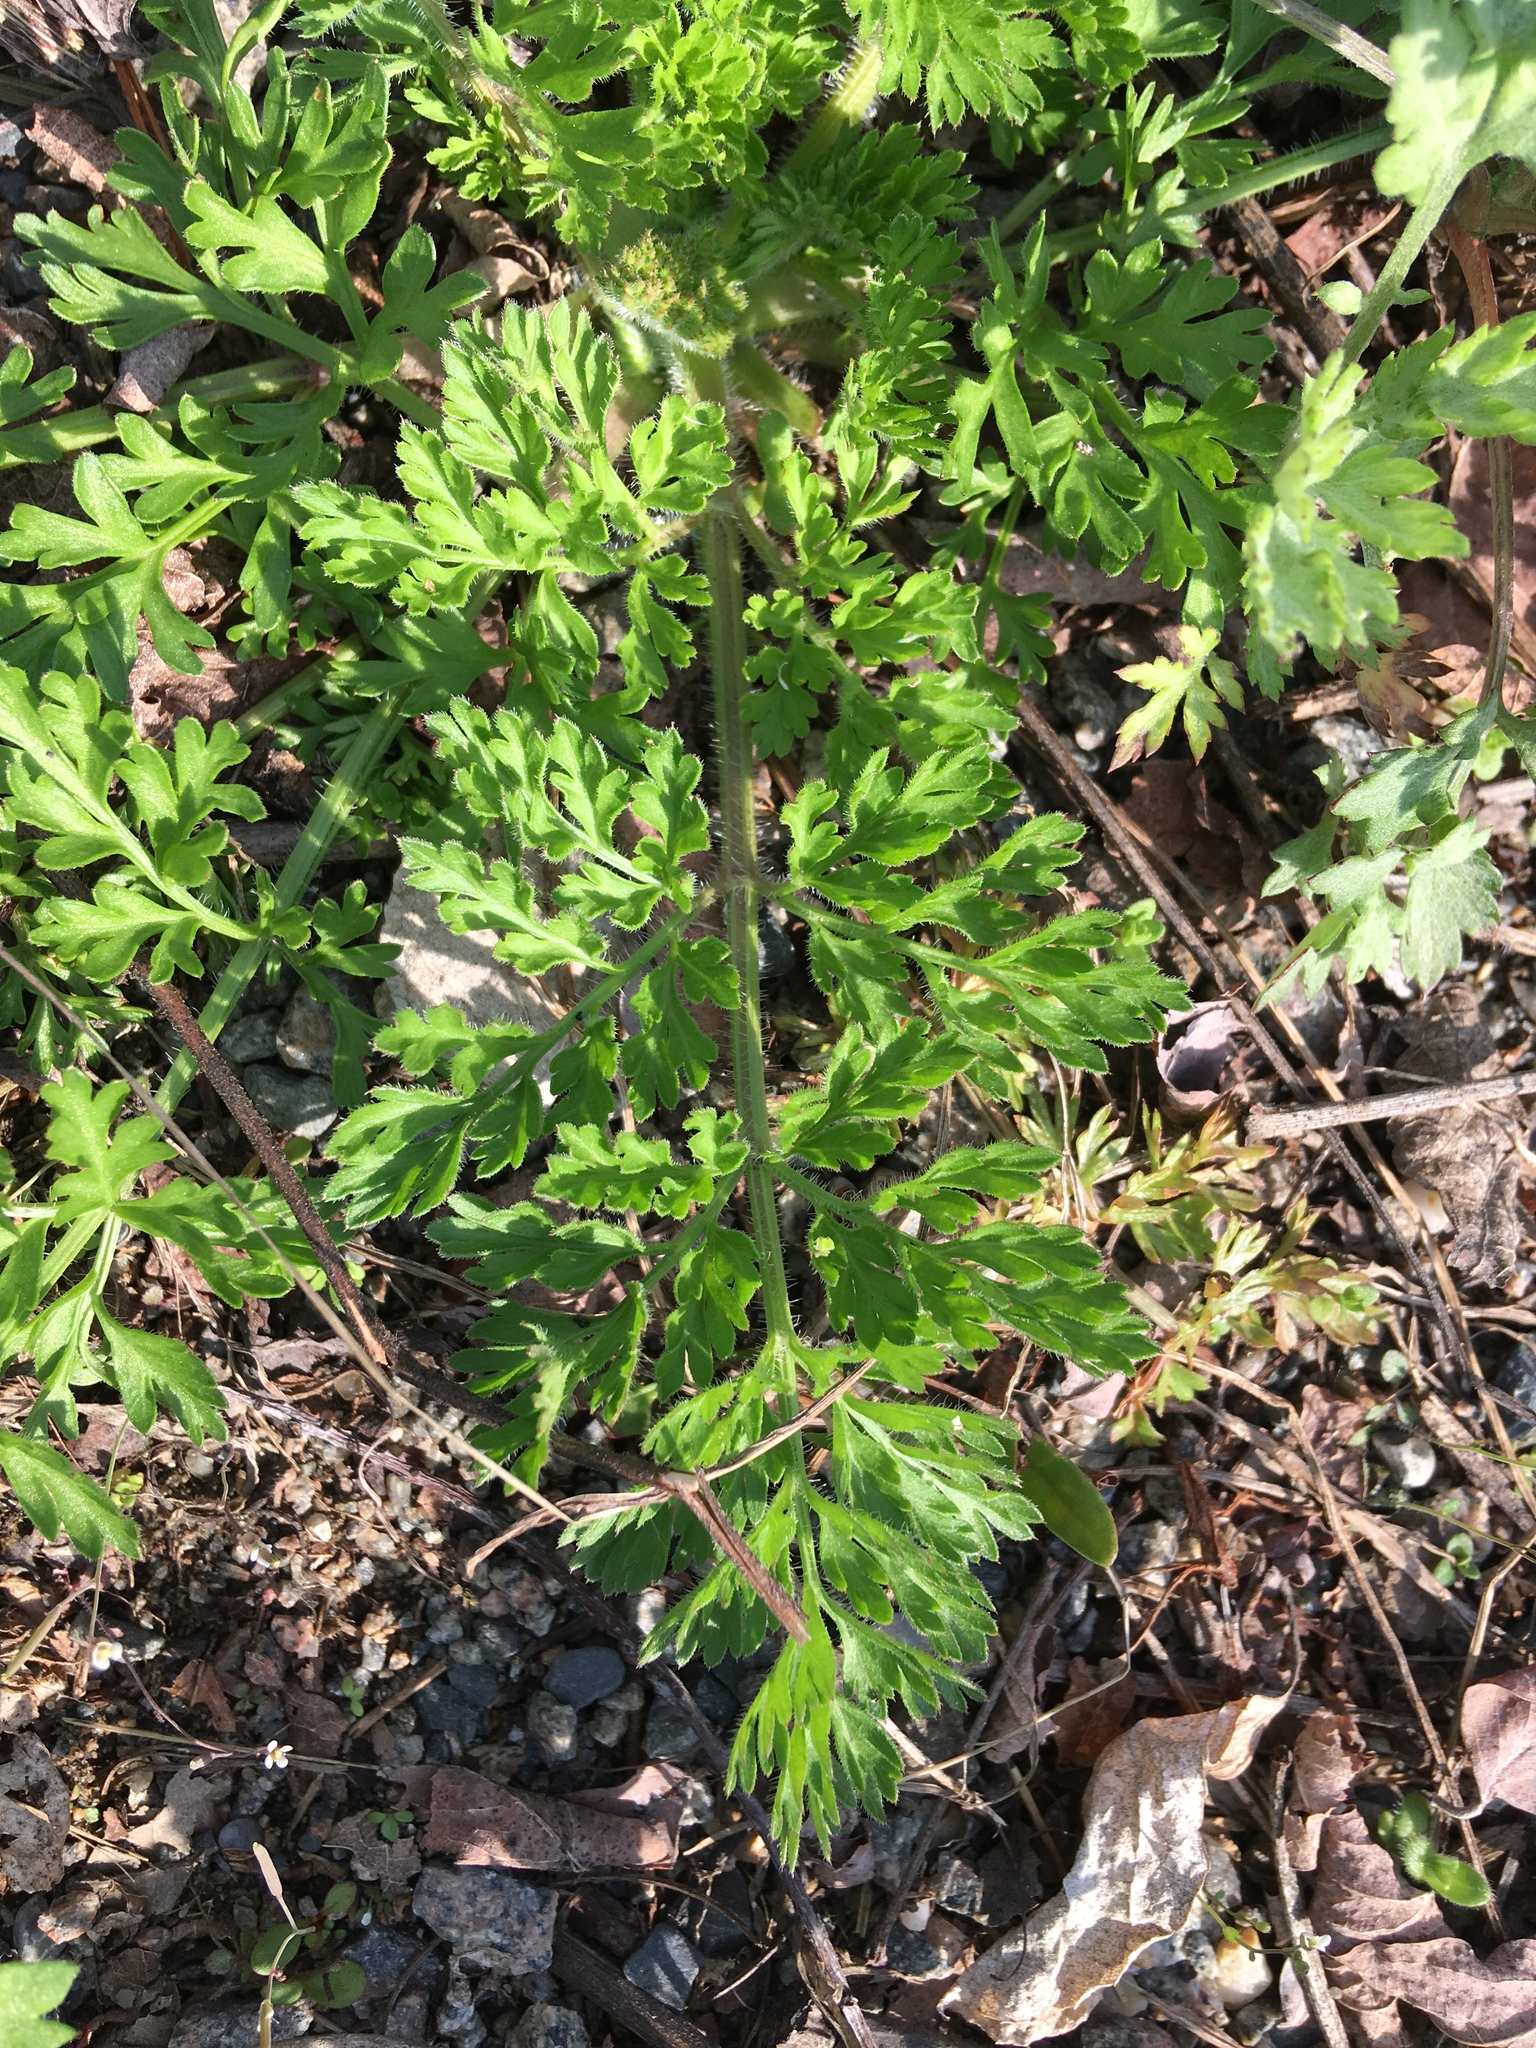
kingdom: Plantae
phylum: Tracheophyta
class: Magnoliopsida
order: Apiales
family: Apiaceae
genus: Daucus
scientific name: Daucus carota
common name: Wild carrot
